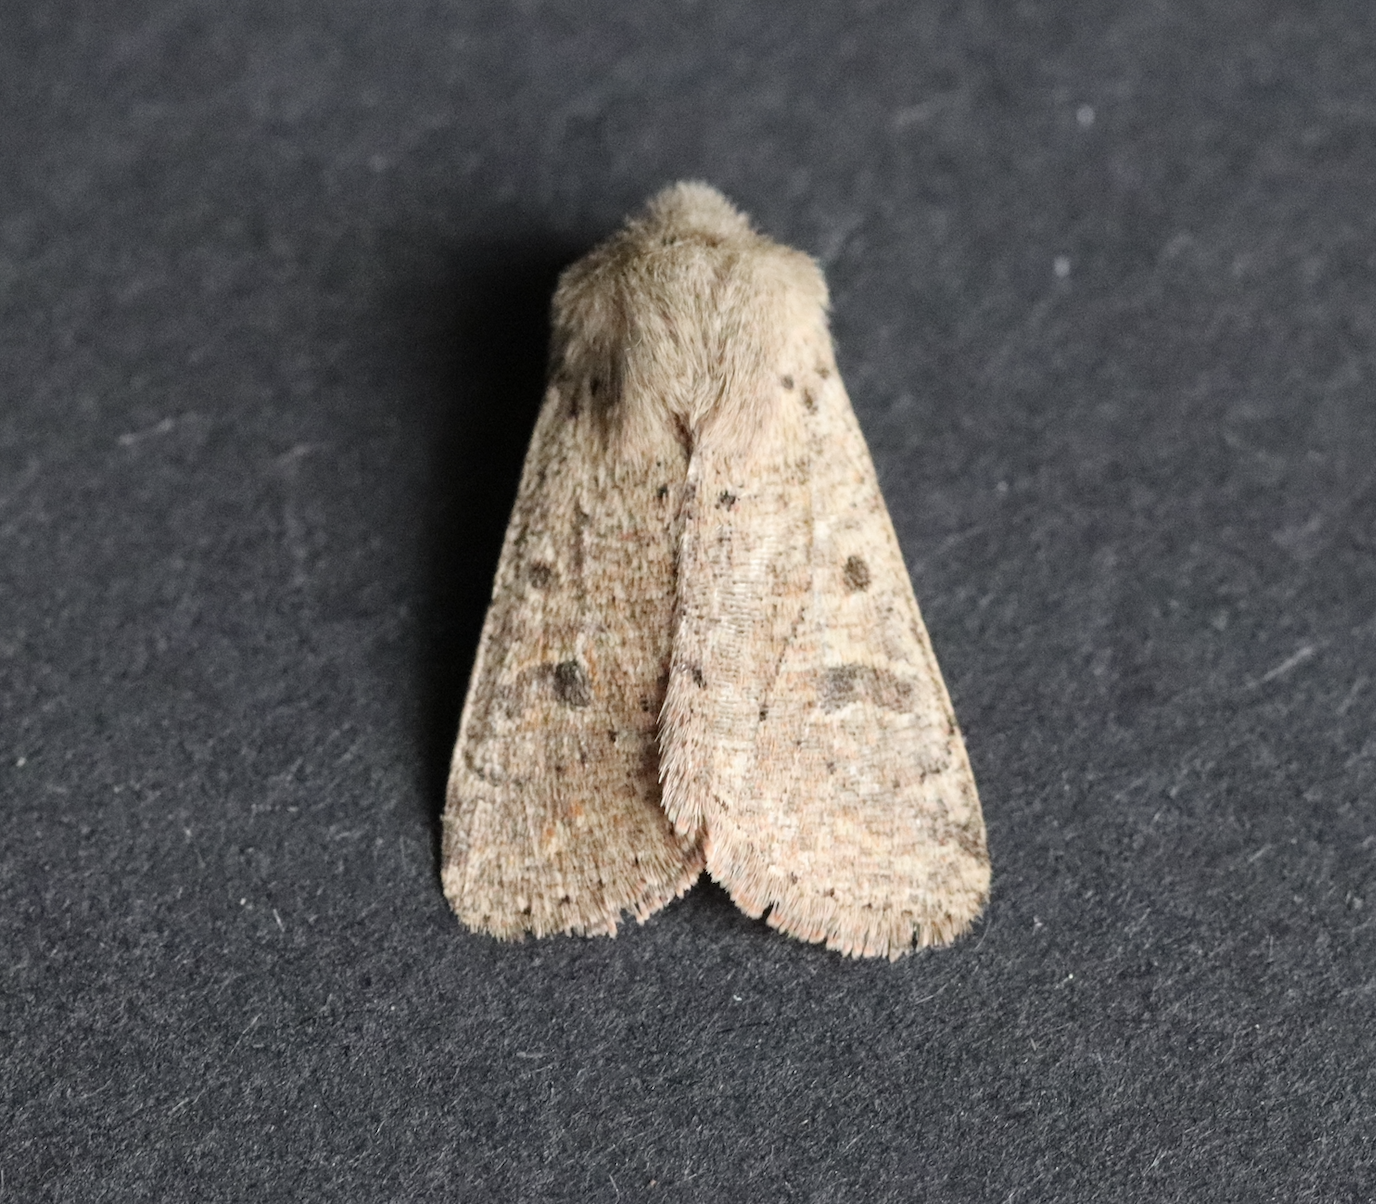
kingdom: Animalia
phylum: Arthropoda
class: Insecta
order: Lepidoptera
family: Noctuidae
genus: Orthosia
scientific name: Orthosia cruda
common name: Small quaker
